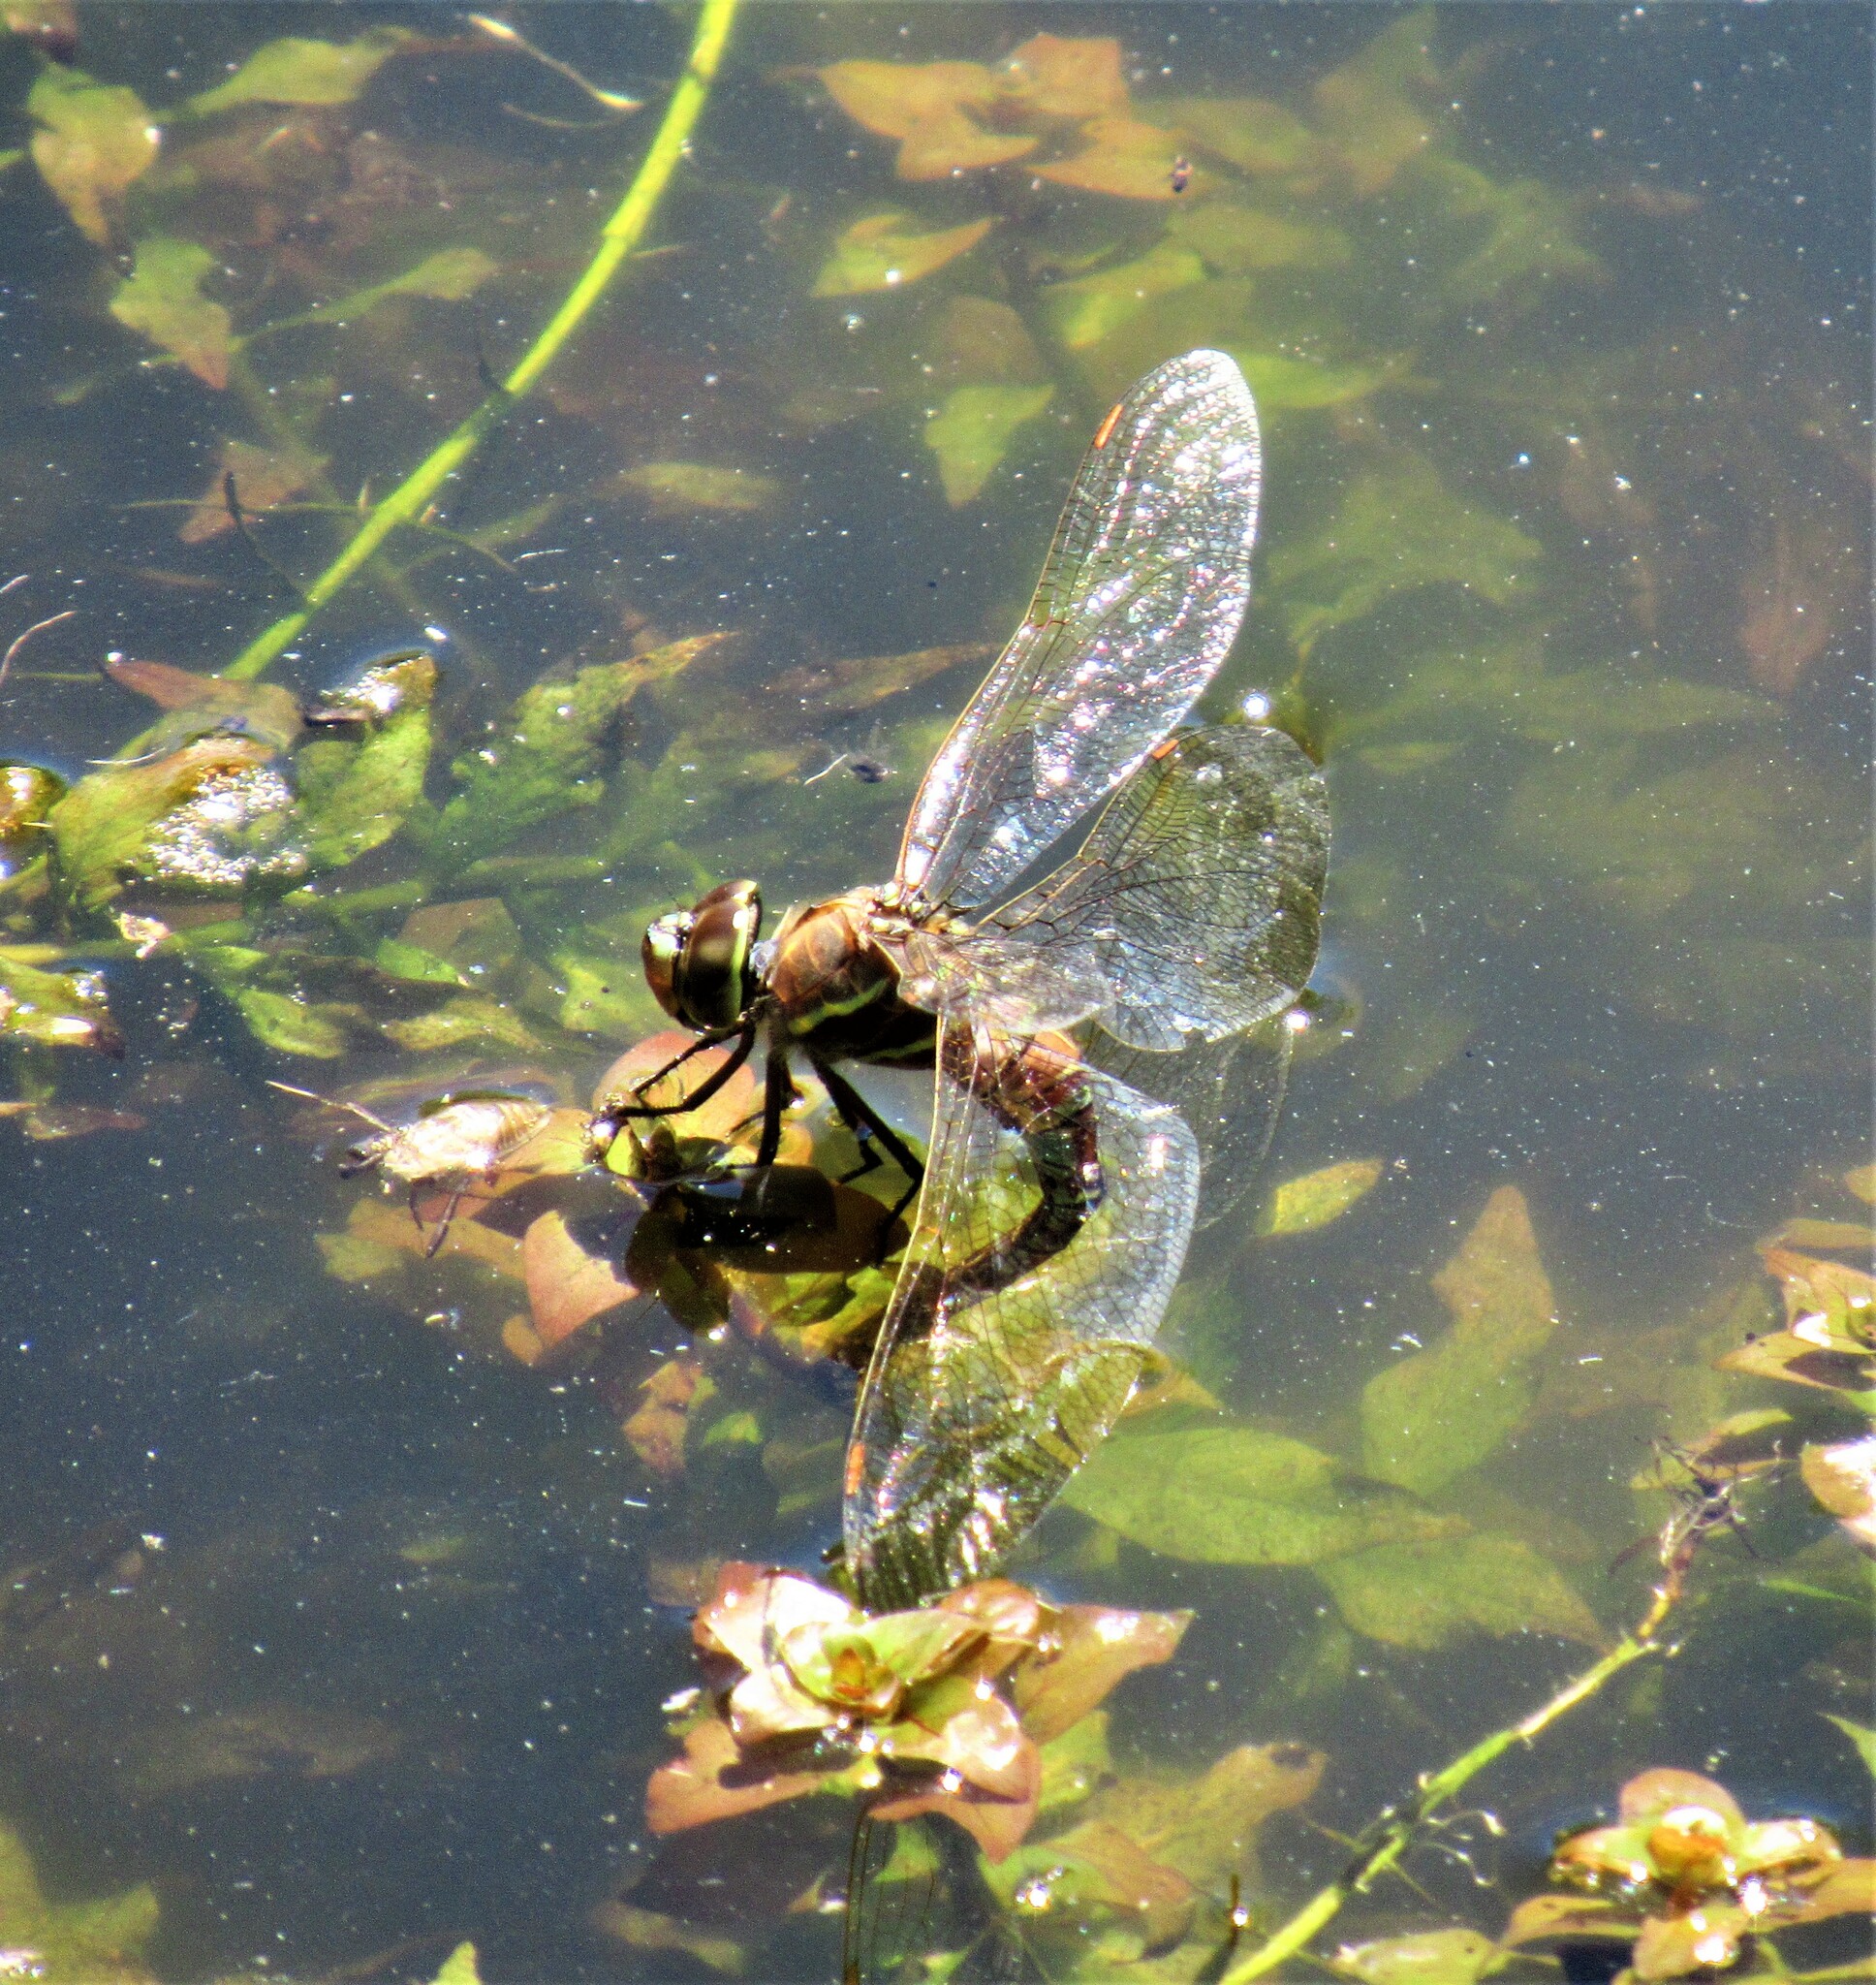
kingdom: Animalia
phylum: Arthropoda
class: Insecta
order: Odonata
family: Aeshnidae
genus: Rhionaeschna
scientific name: Rhionaeschna multicolor
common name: Blue-eyed darner
